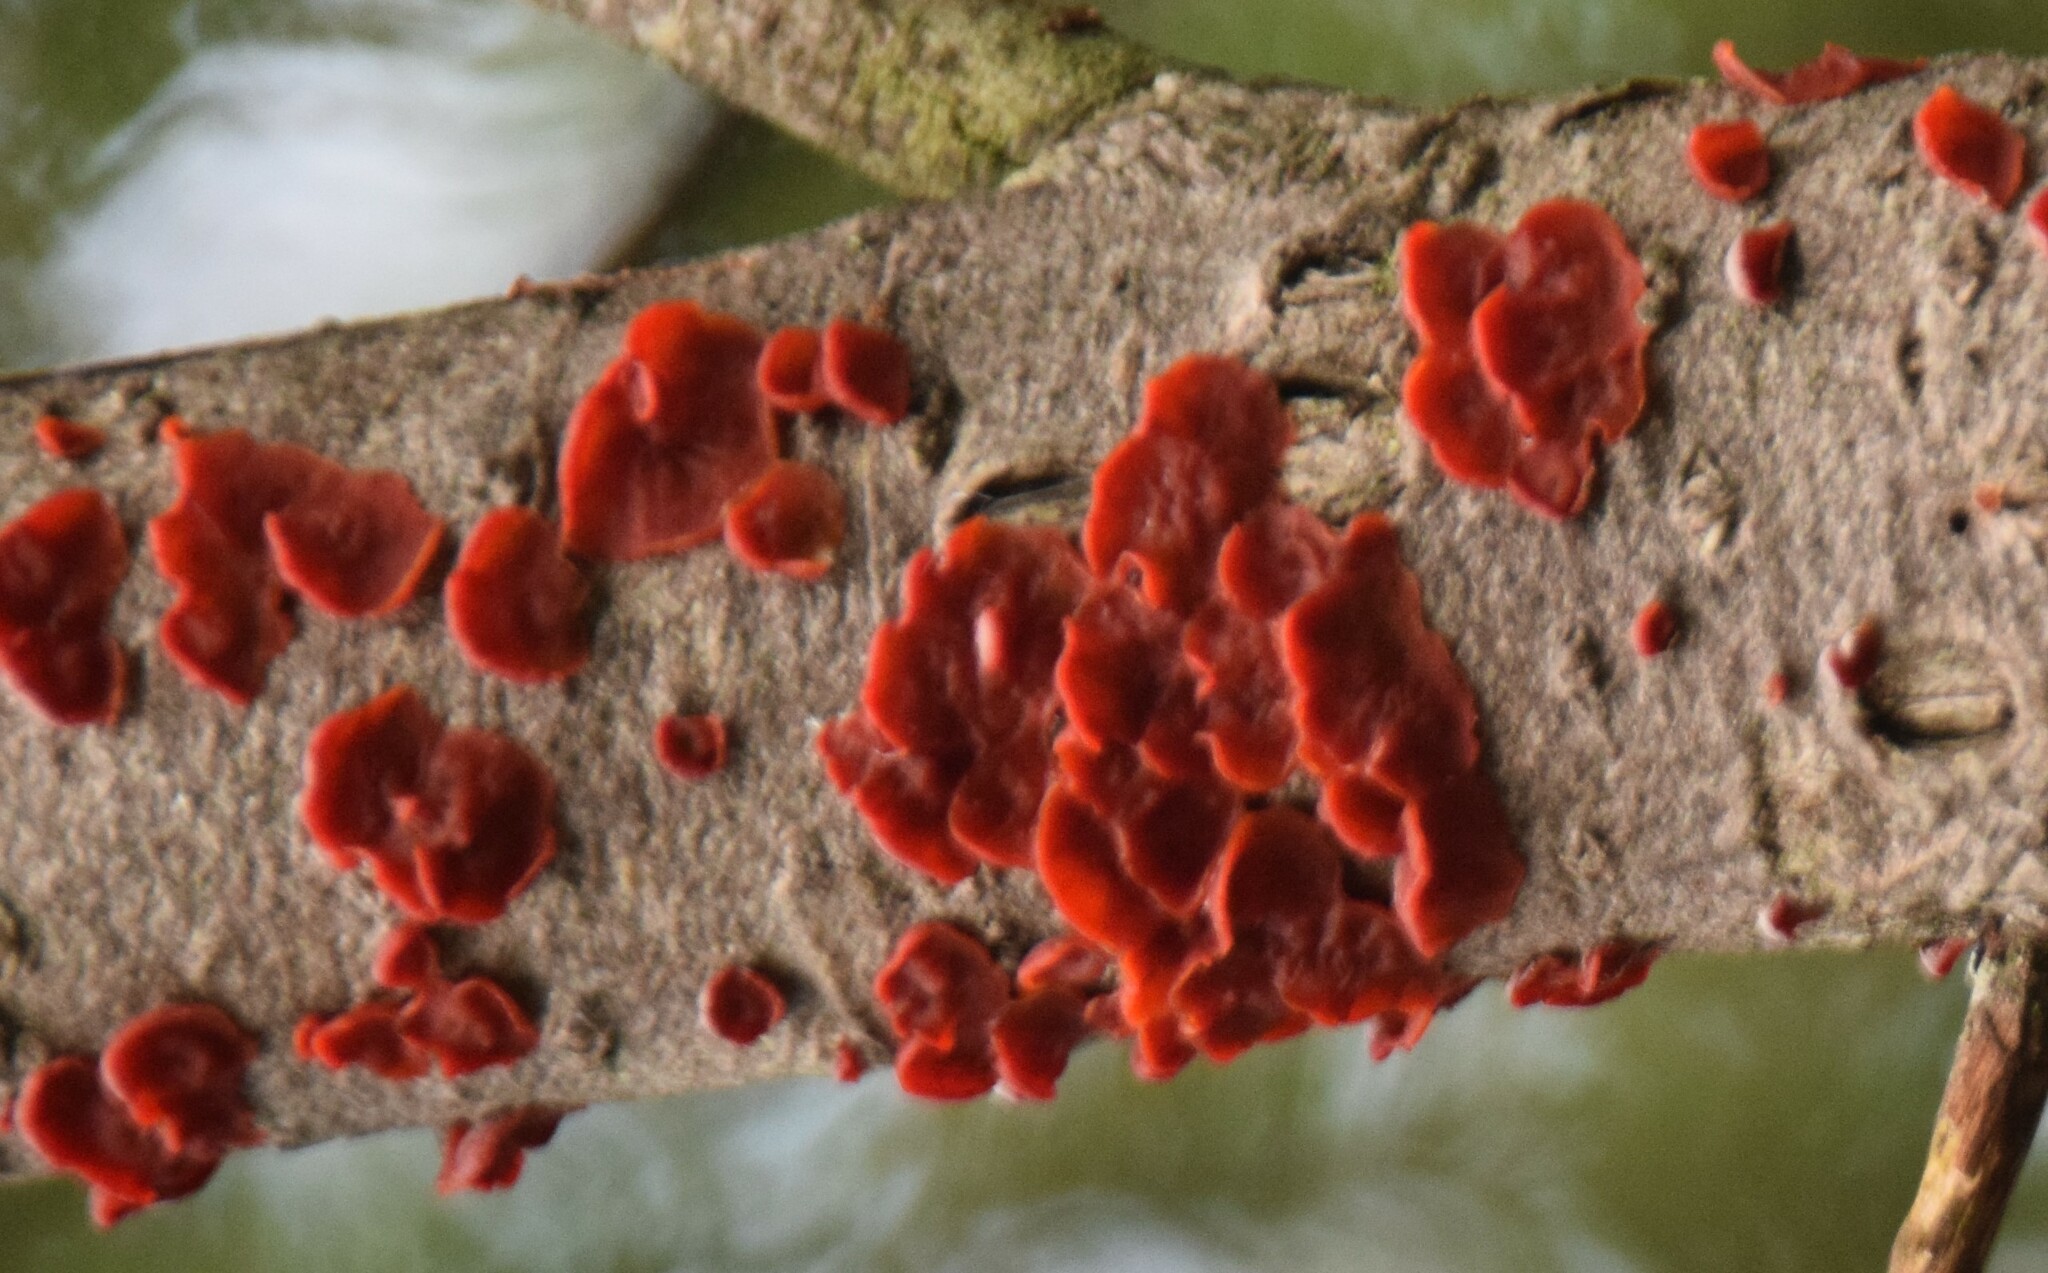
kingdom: Fungi
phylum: Basidiomycota
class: Agaricomycetes
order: Corticiales
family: Vuilleminiaceae
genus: Cytidia
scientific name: Cytidia salicina
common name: Scarlet splash
